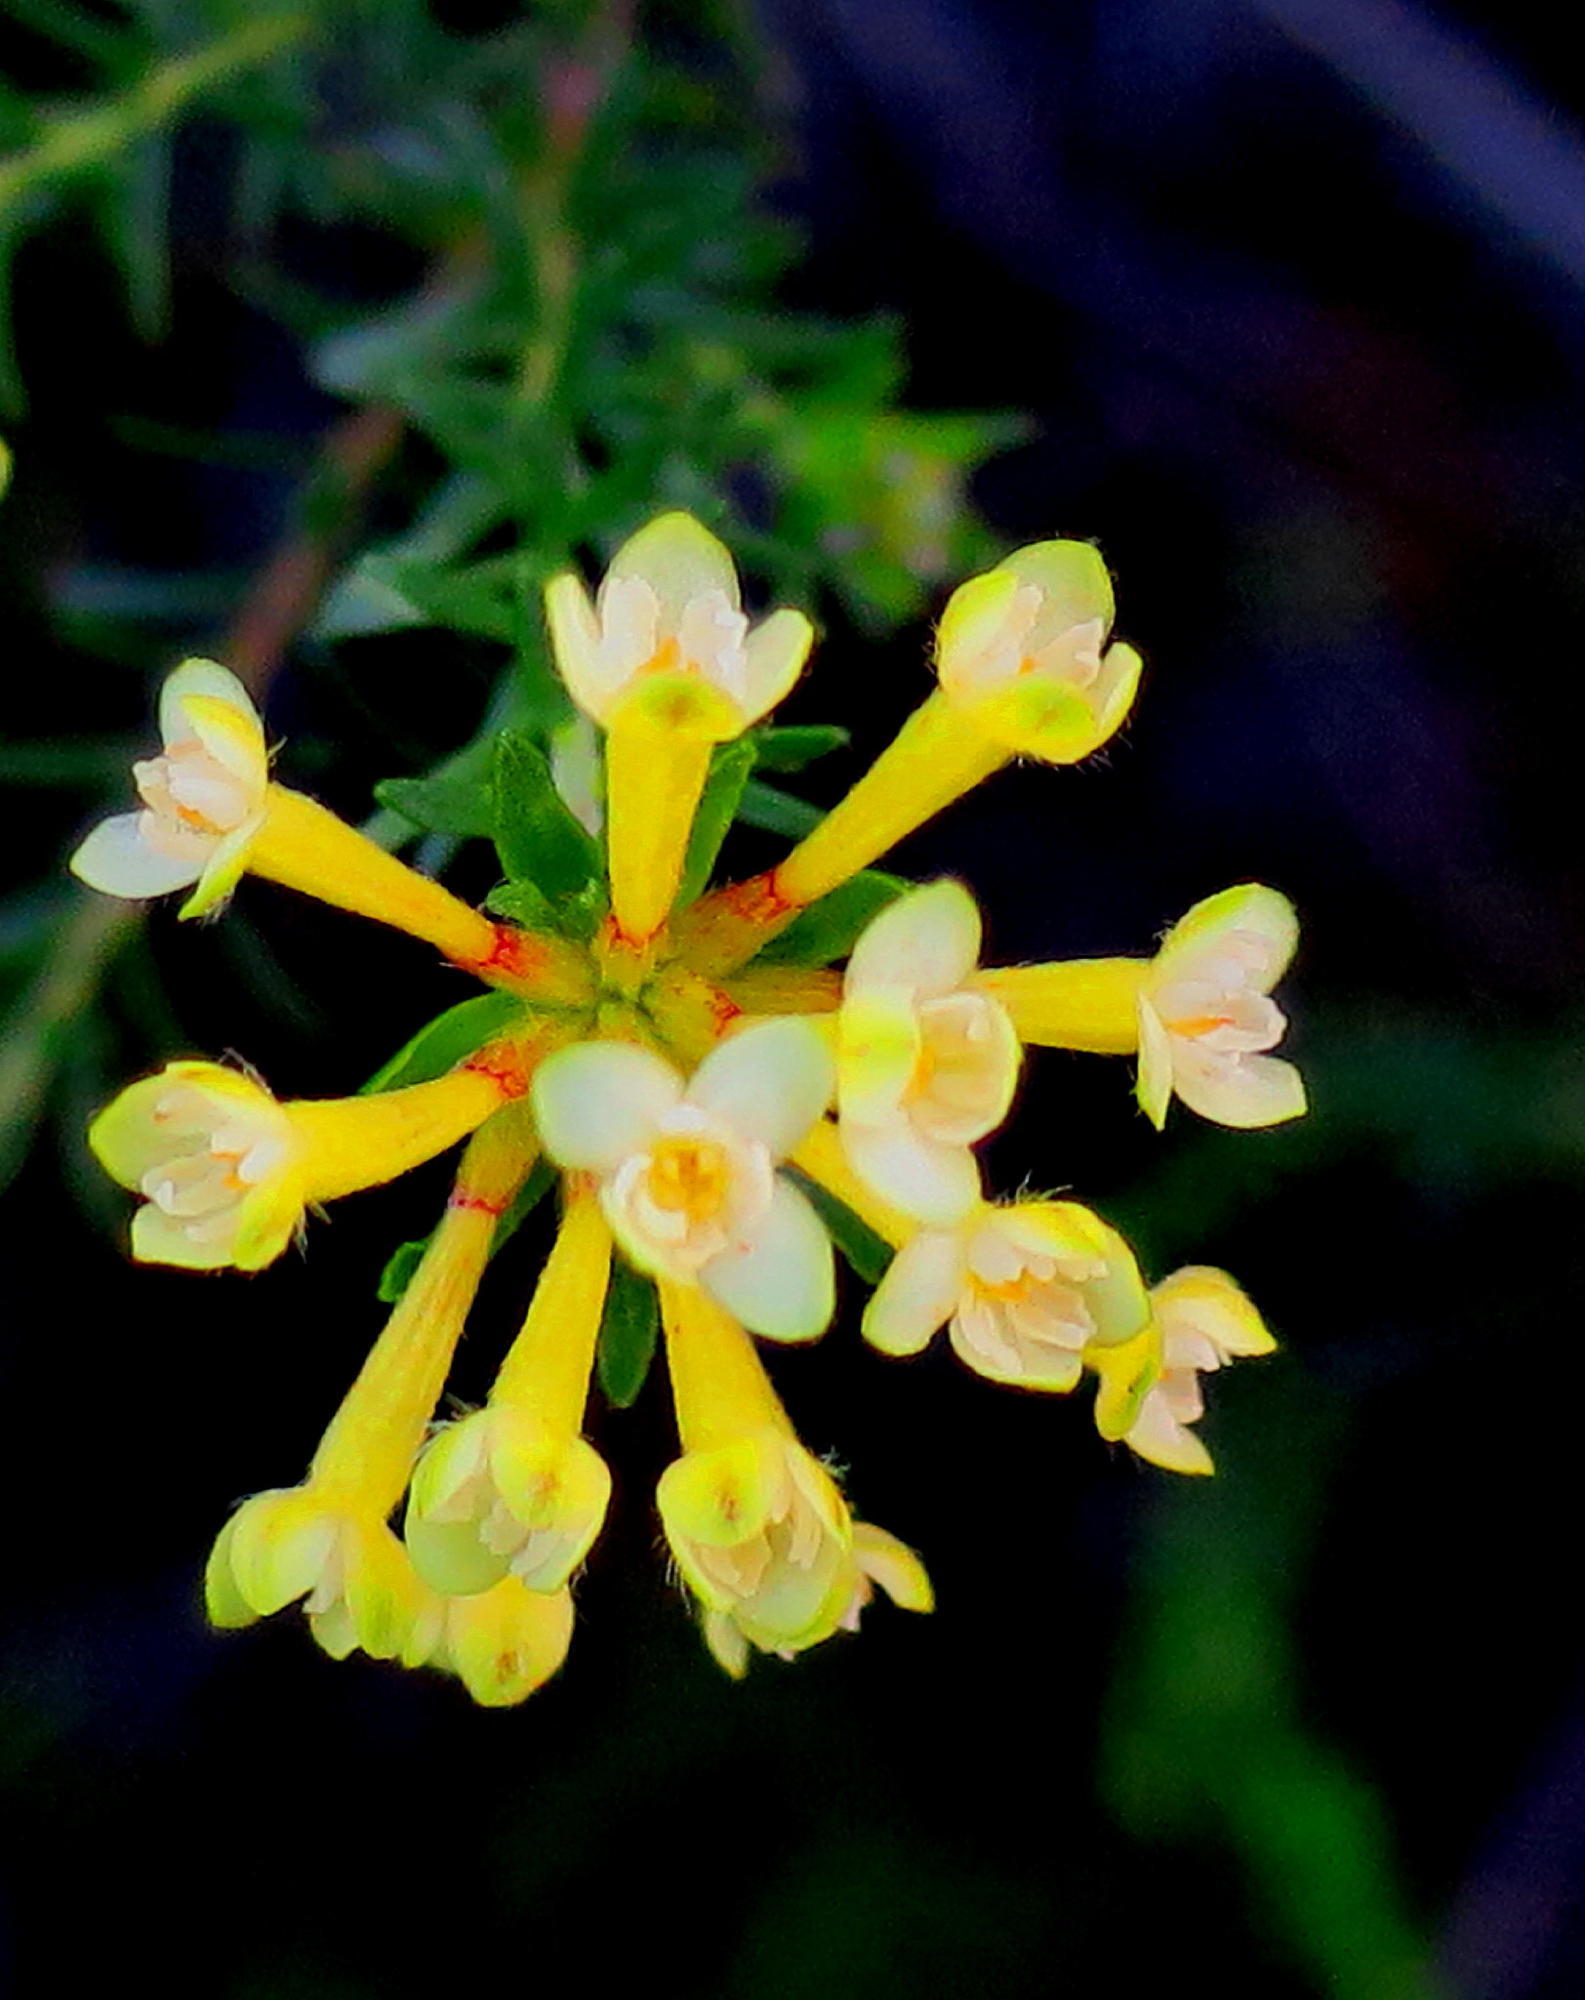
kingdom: Plantae
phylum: Tracheophyta
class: Magnoliopsida
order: Malvales
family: Thymelaeaceae
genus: Gnidia
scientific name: Gnidia squarrosa
